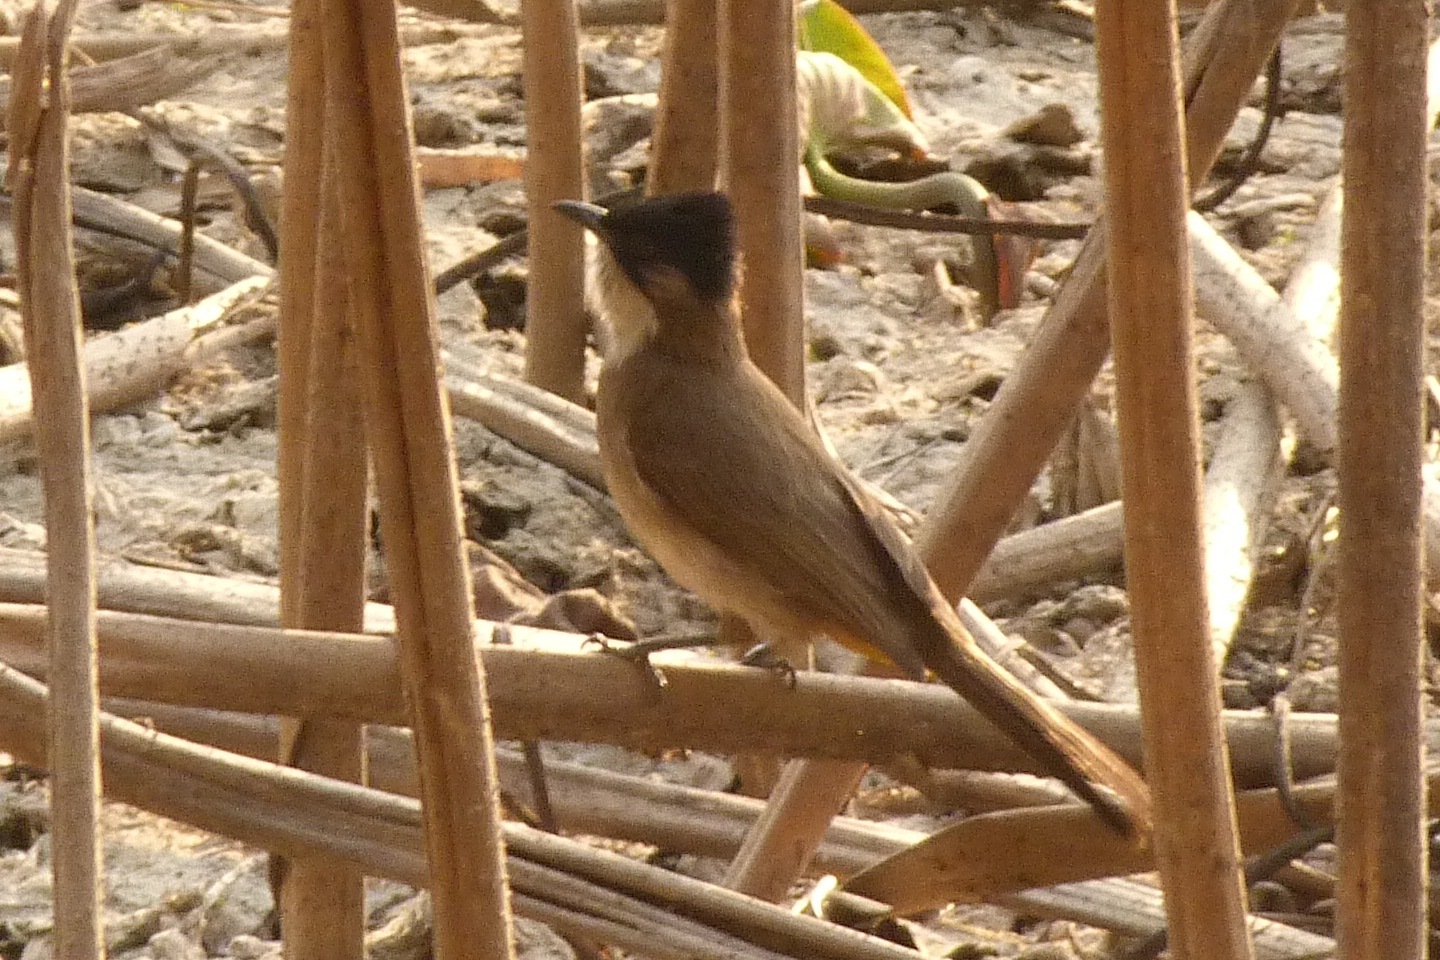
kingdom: Animalia
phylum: Chordata
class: Aves
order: Passeriformes
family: Pycnonotidae
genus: Pycnonotus
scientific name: Pycnonotus xanthorrhous
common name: Brown-breasted bulbul
